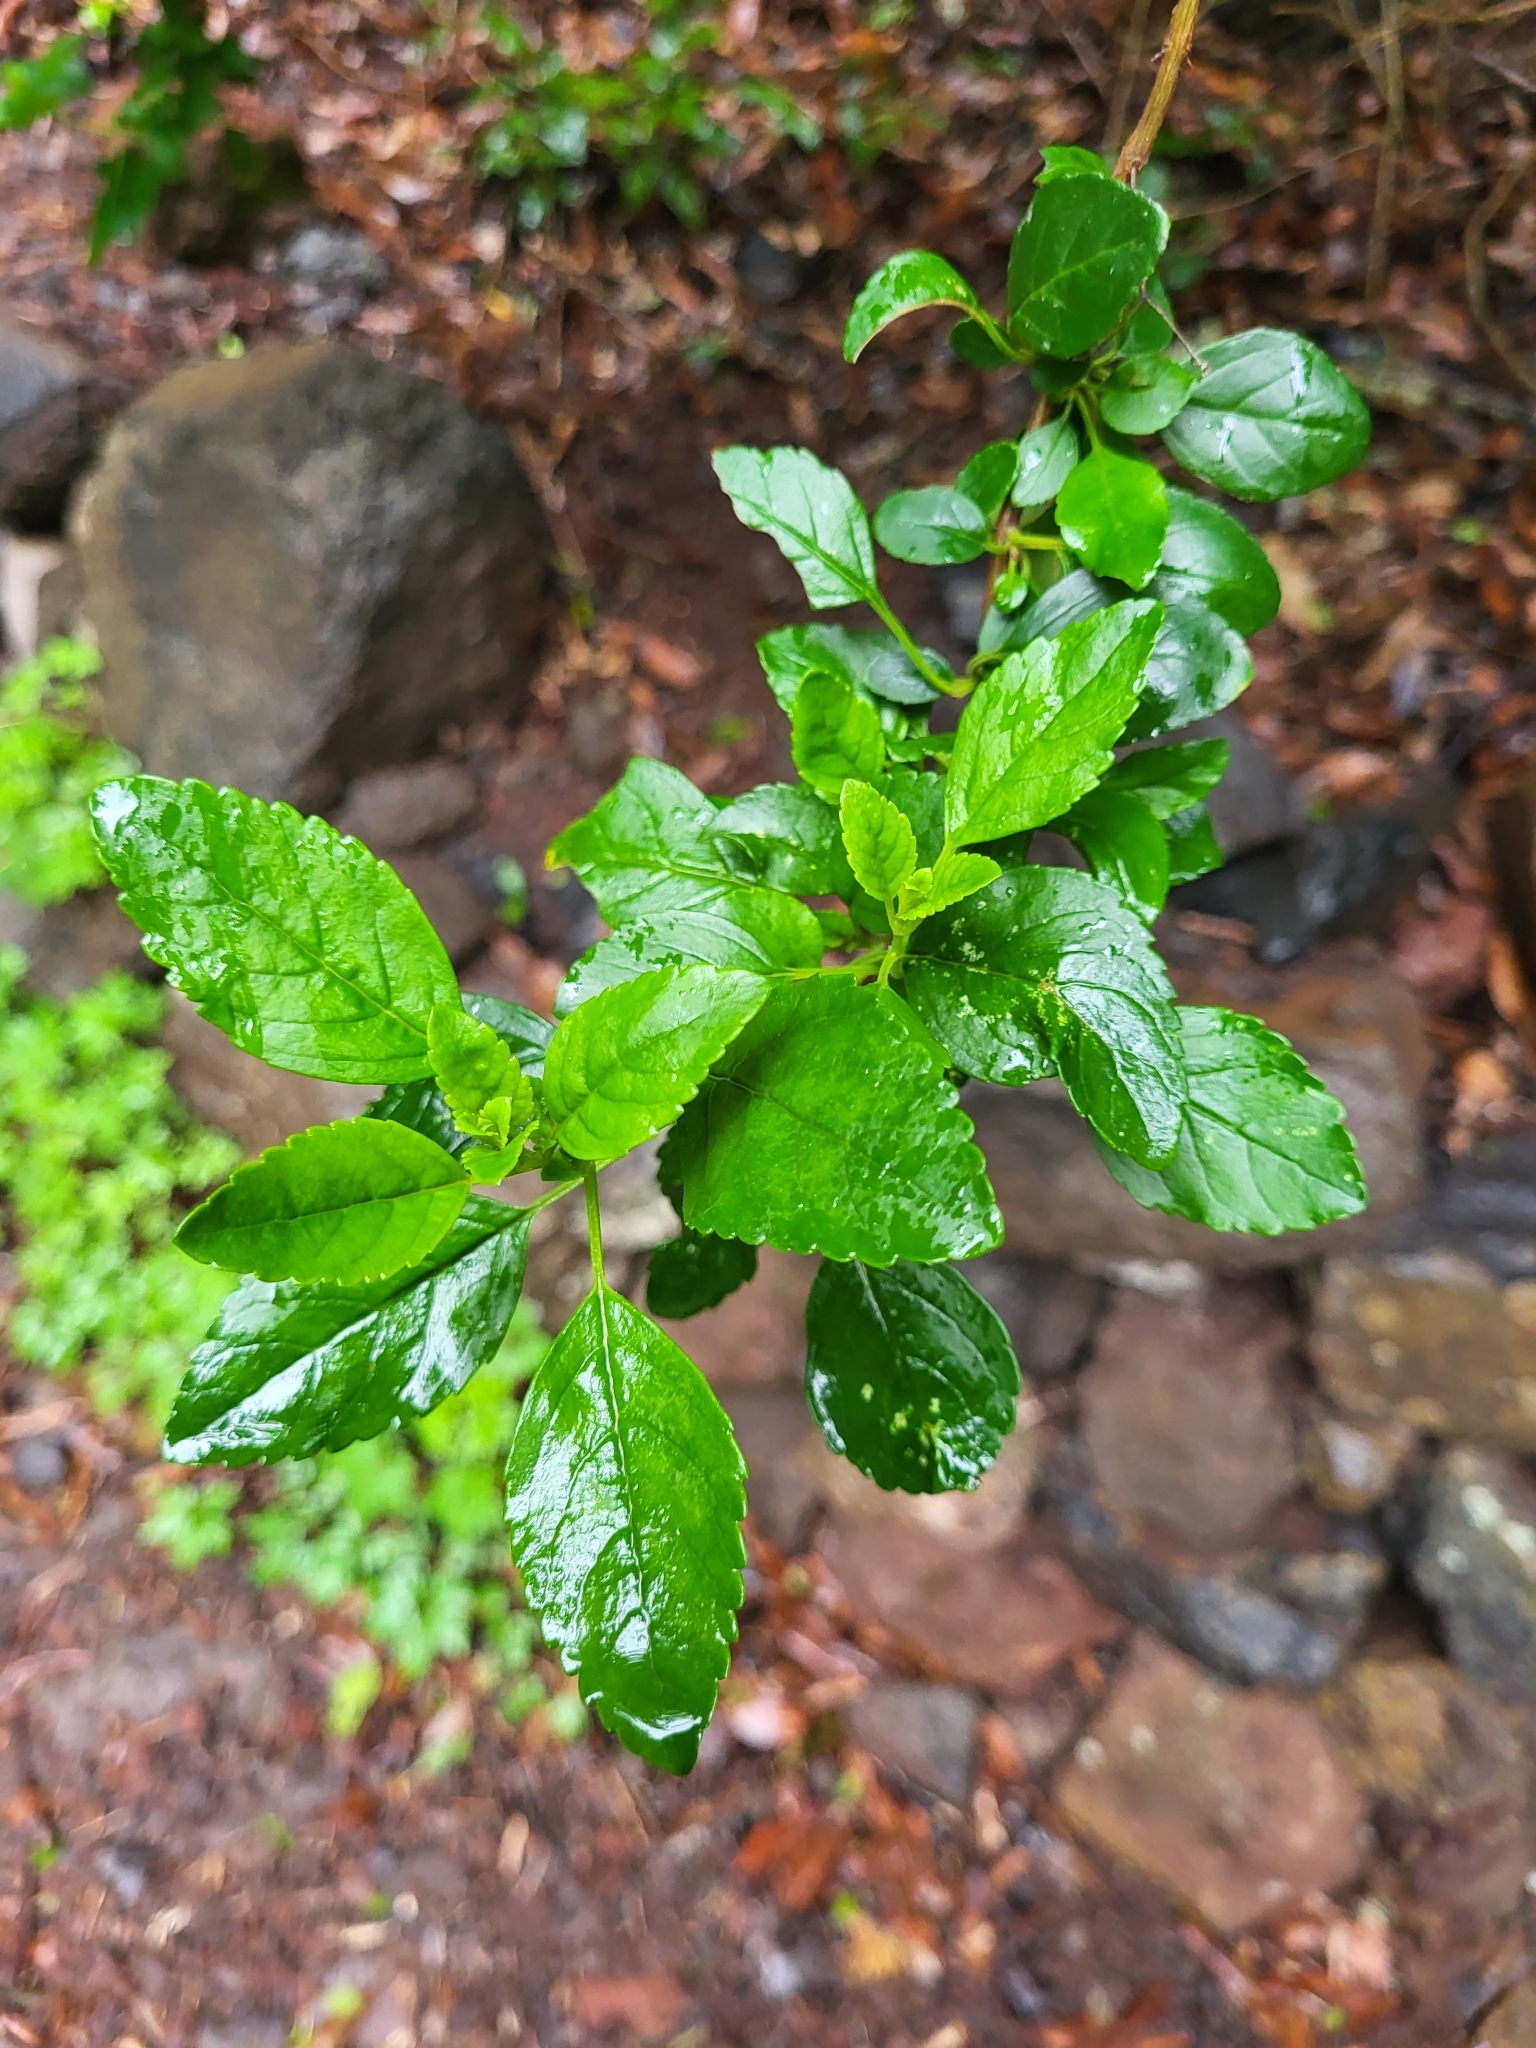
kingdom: Plantae
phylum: Tracheophyta
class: Magnoliopsida
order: Lamiales
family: Lamiaceae
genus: Bystropogon
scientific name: Bystropogon canariensis
